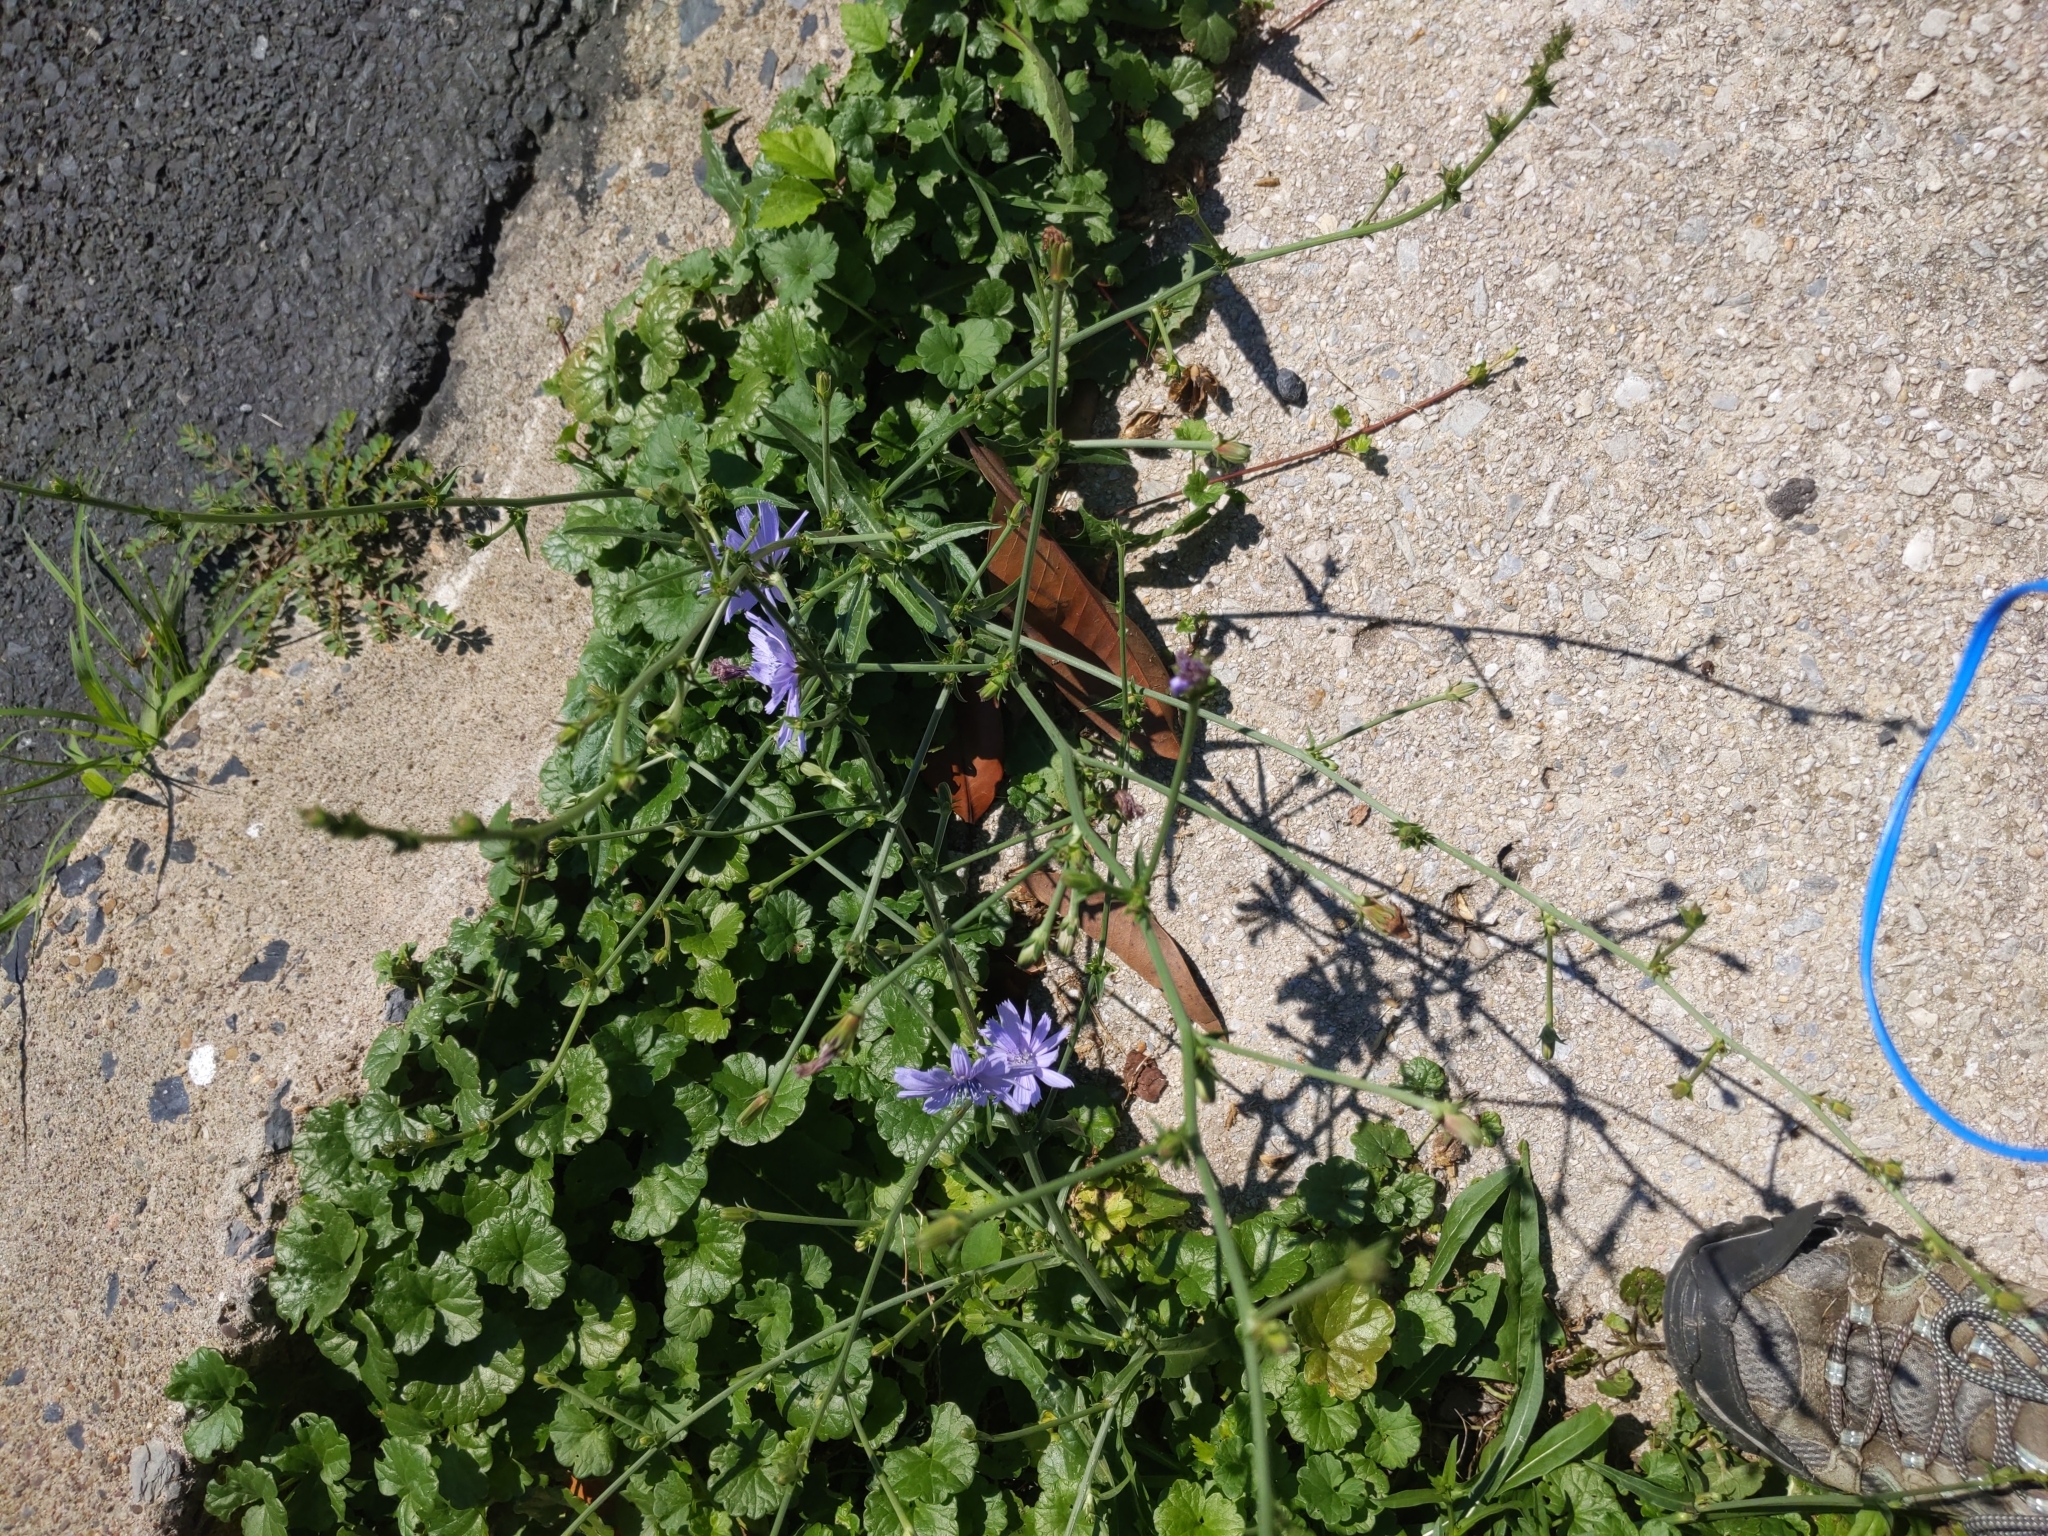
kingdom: Plantae
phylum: Tracheophyta
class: Magnoliopsida
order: Asterales
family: Asteraceae
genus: Cichorium
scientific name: Cichorium intybus
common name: Chicory
